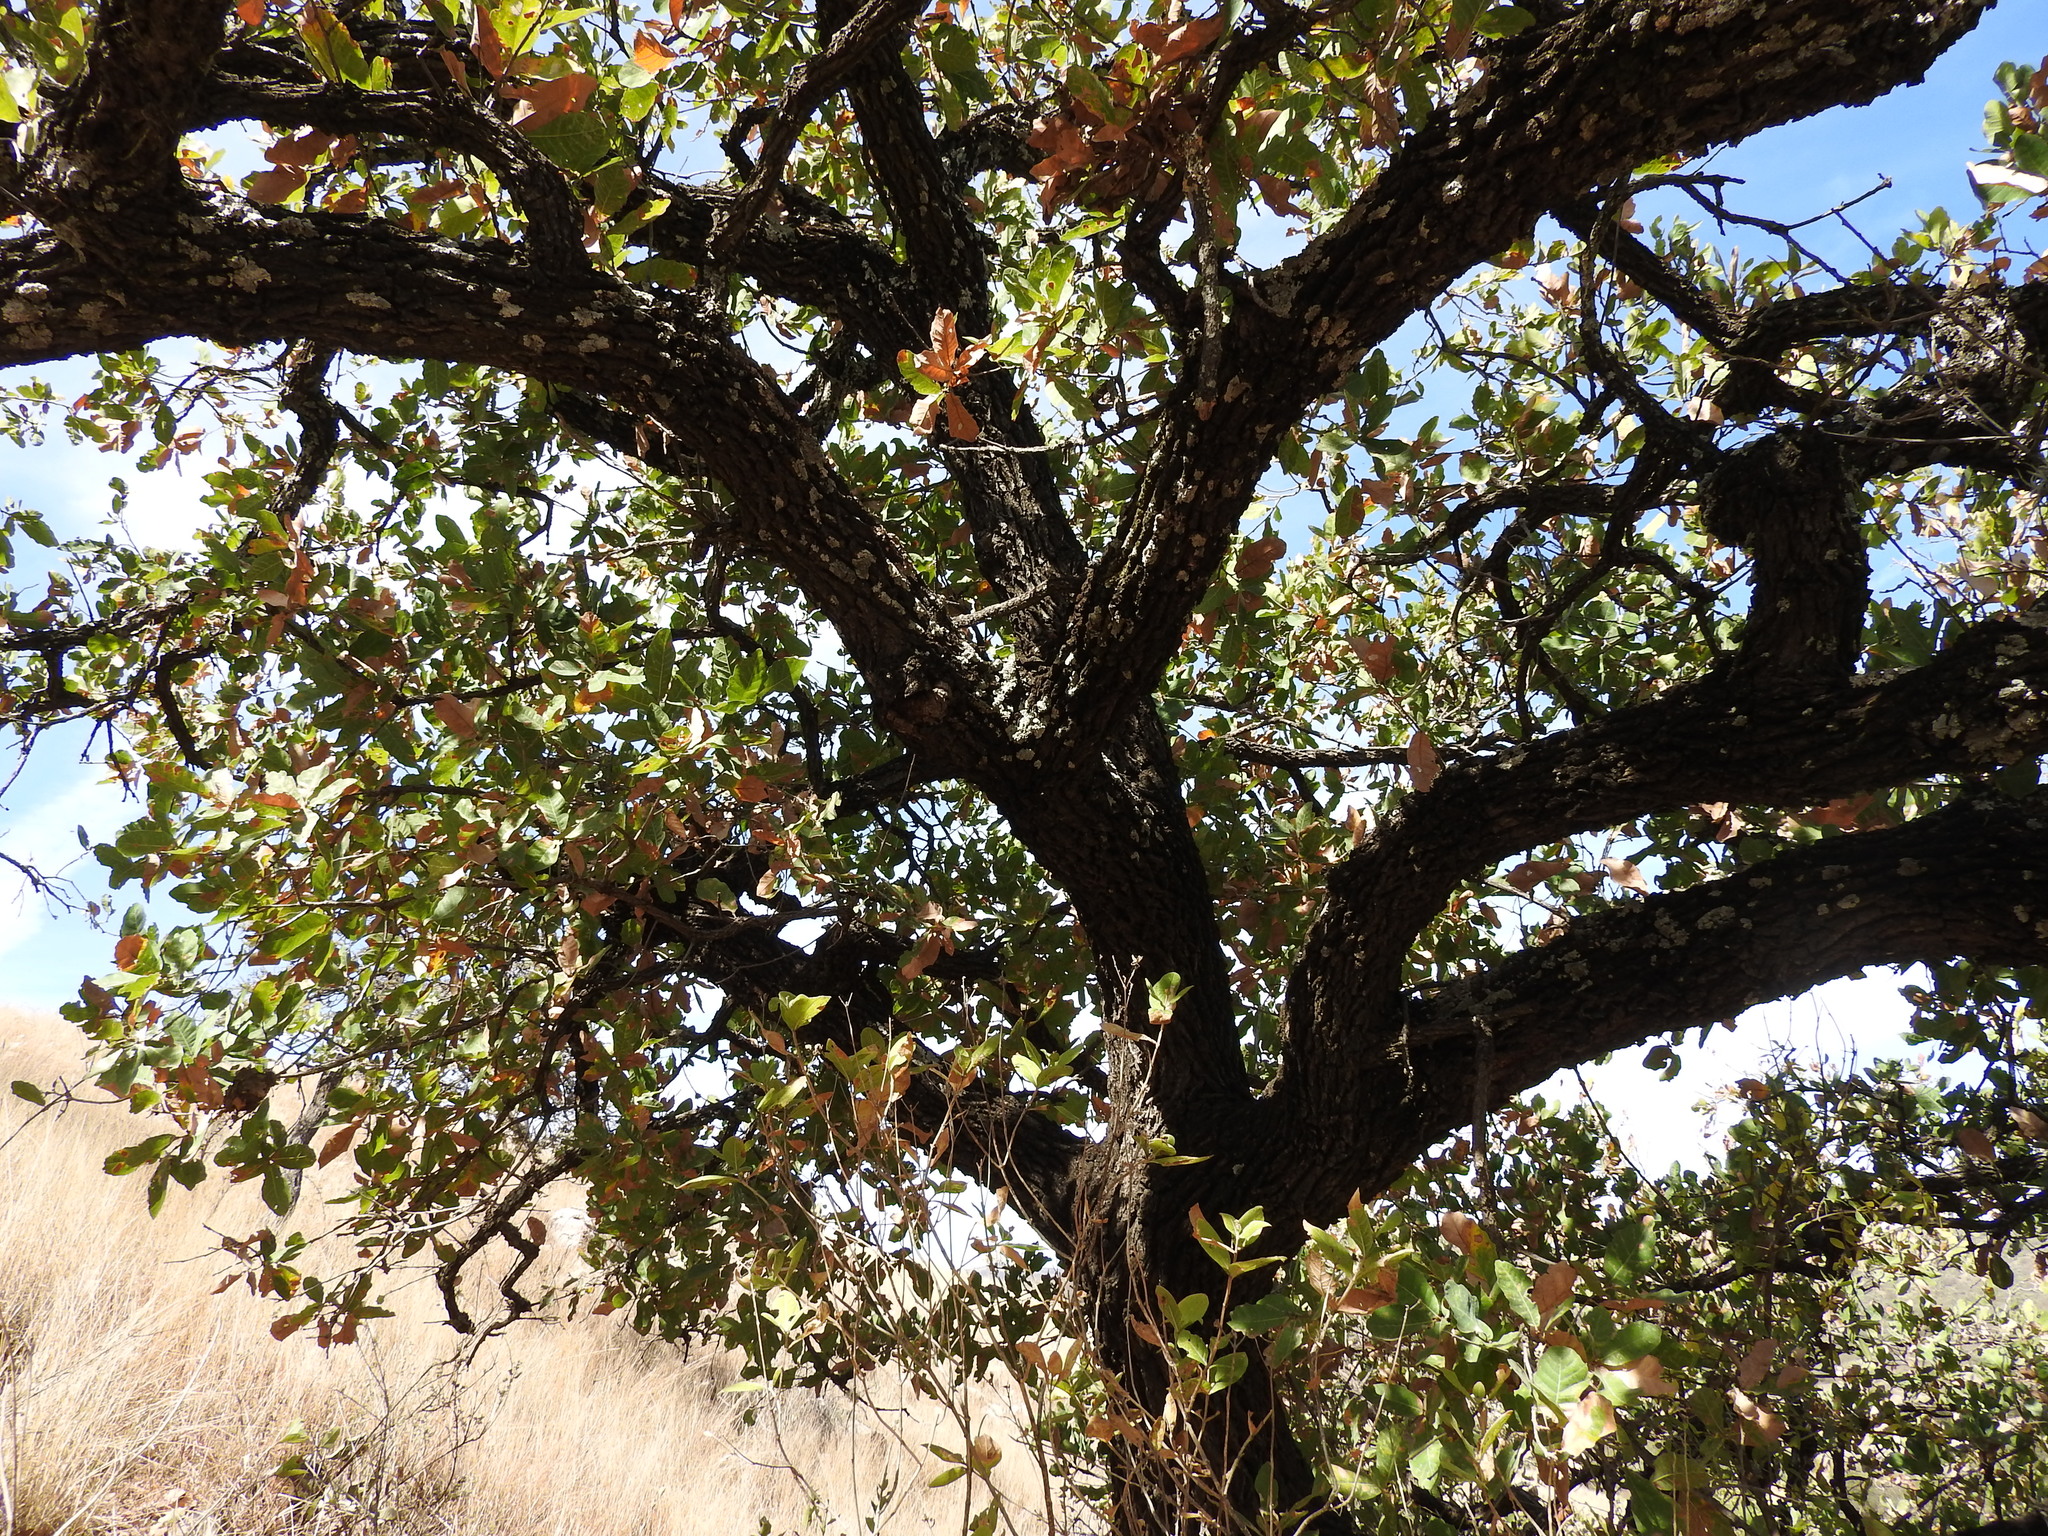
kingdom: Plantae
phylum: Tracheophyta
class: Magnoliopsida
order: Fagales
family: Fagaceae
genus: Quercus
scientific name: Quercus
